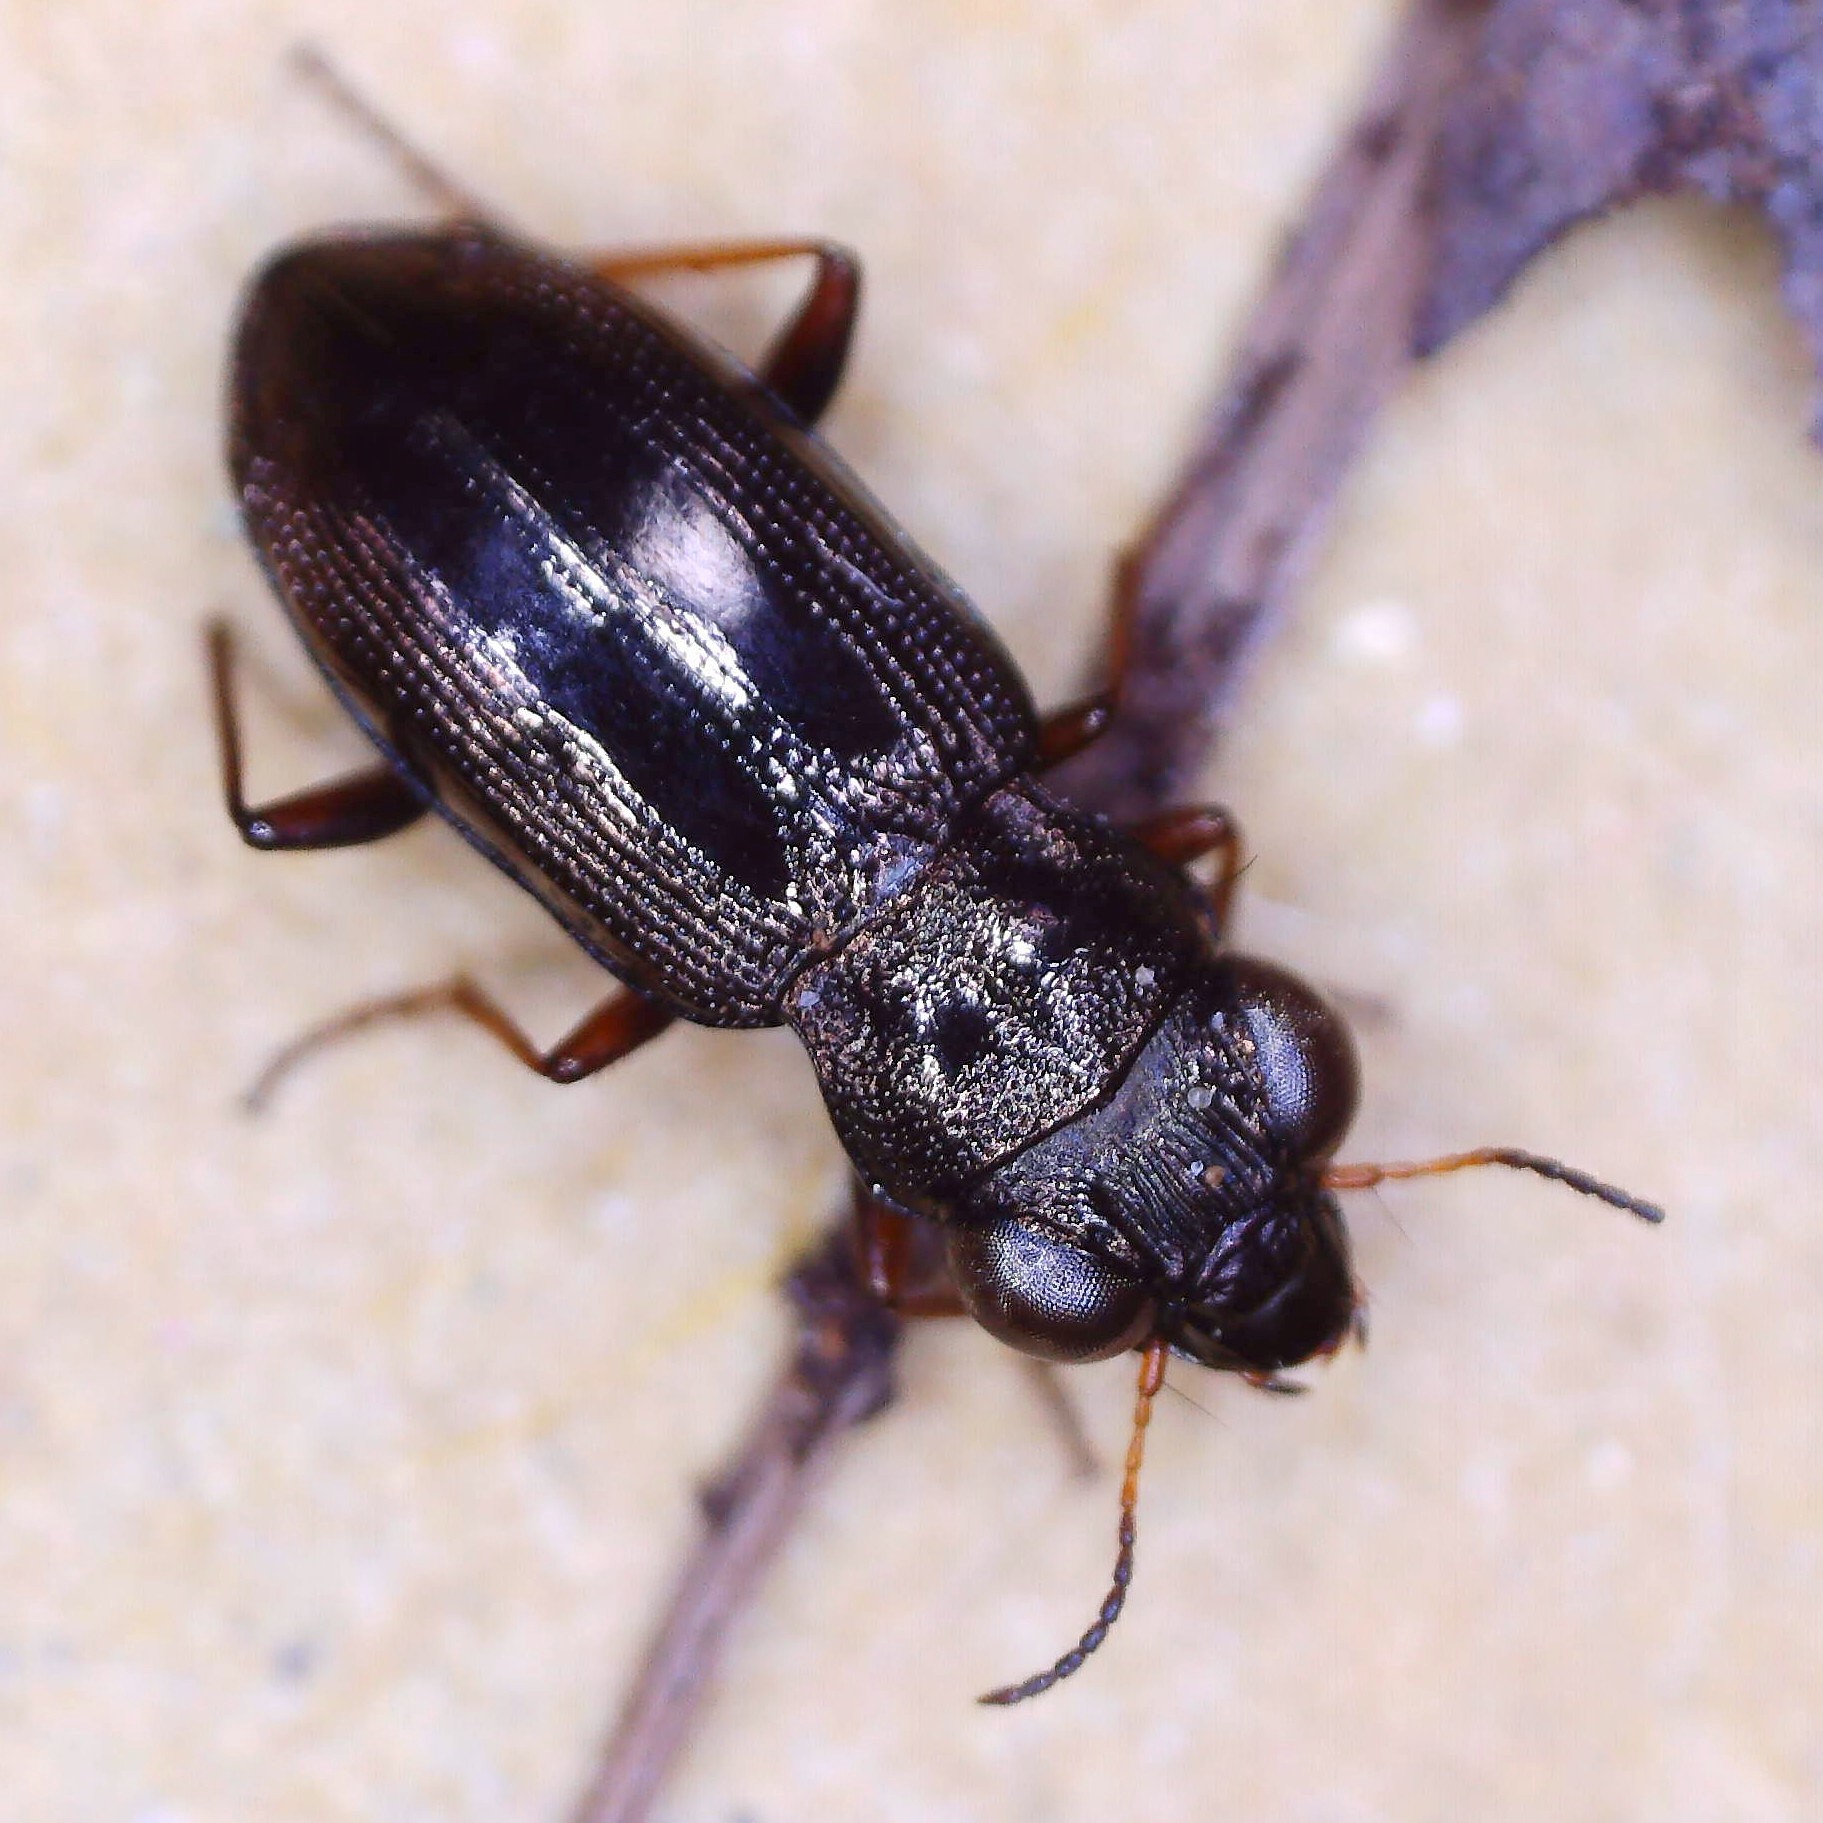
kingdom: Animalia
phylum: Arthropoda
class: Insecta
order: Coleoptera
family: Carabidae
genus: Notiophilus
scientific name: Notiophilus rufipes
